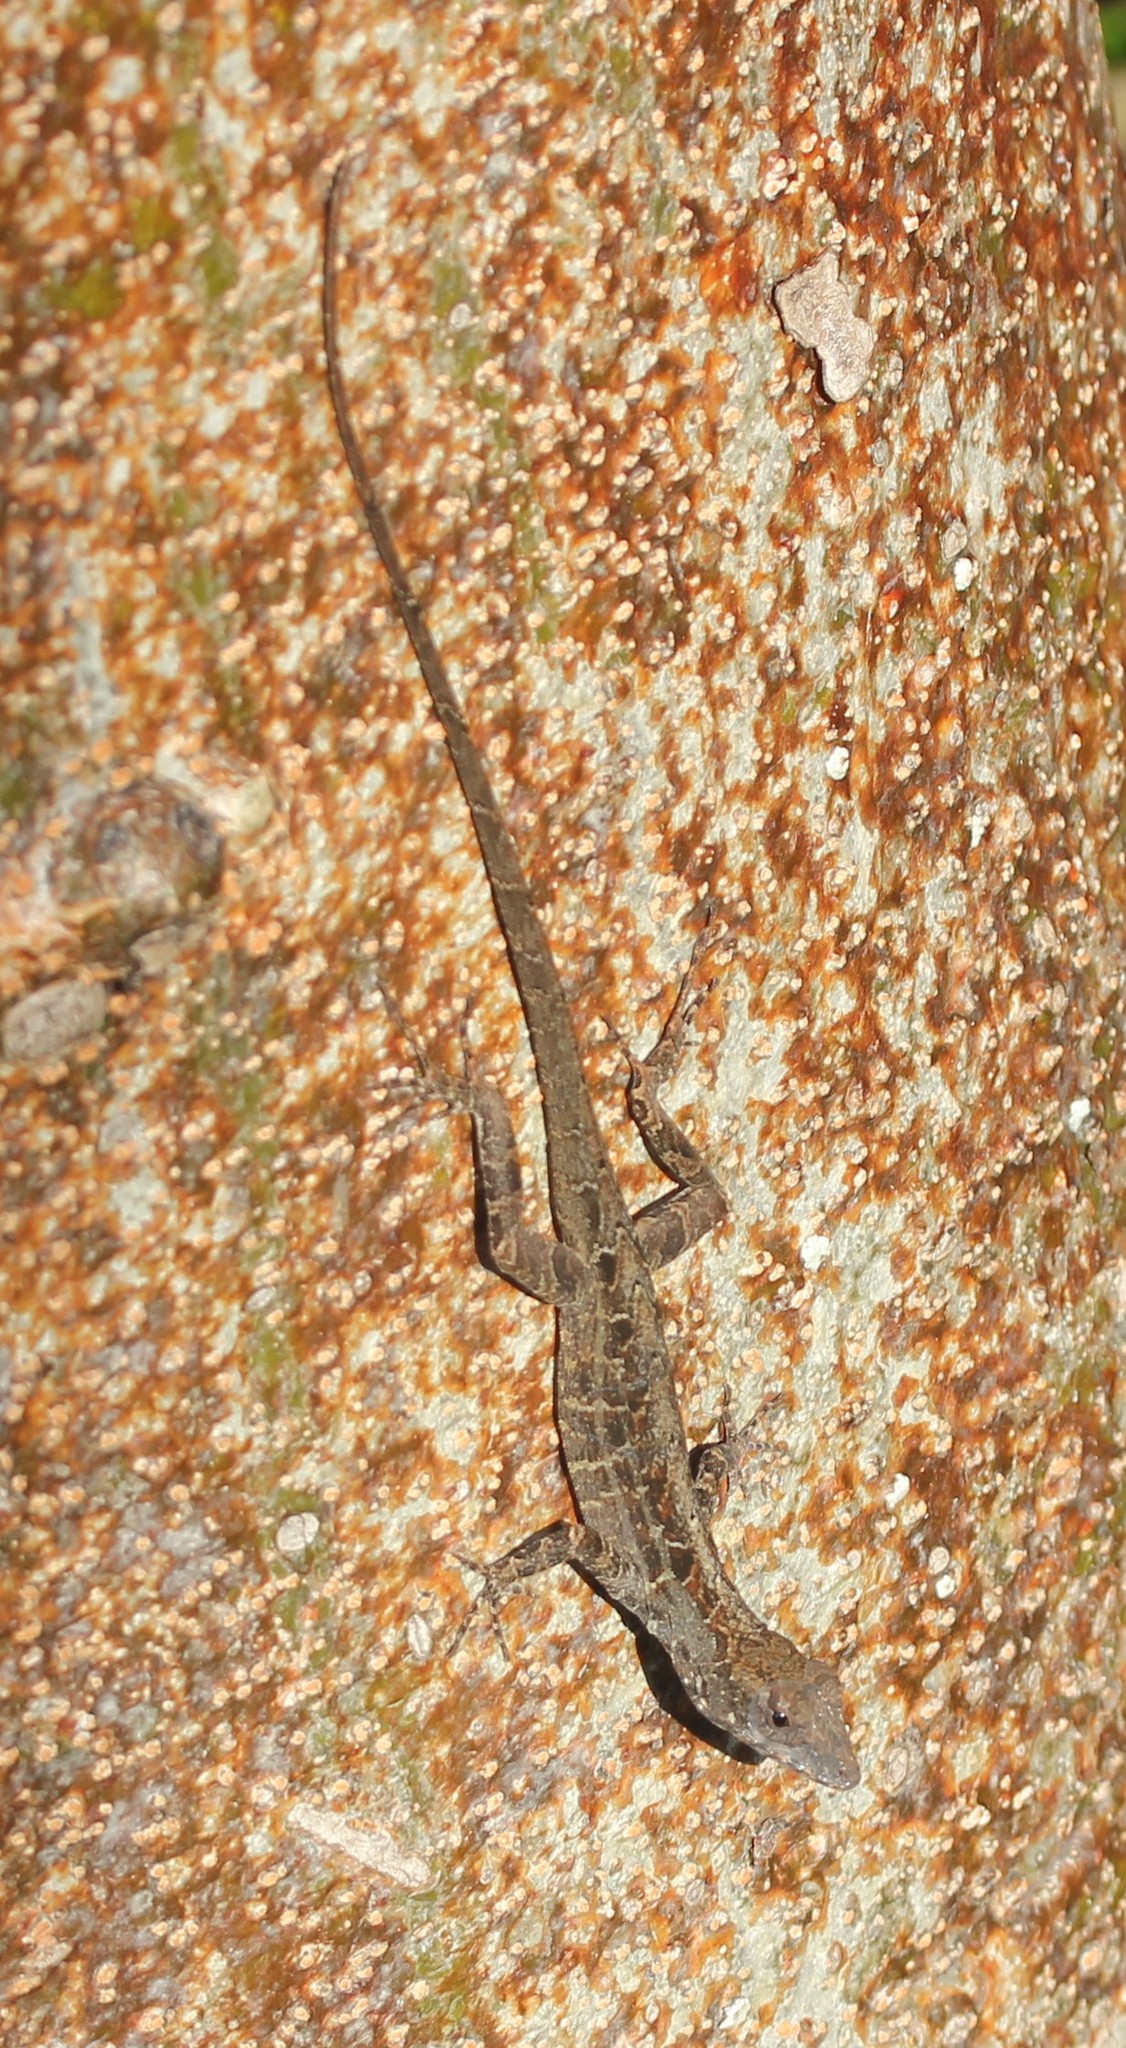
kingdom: Animalia
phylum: Chordata
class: Squamata
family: Dactyloidae
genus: Anolis
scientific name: Anolis sagrei
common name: Brown anole
